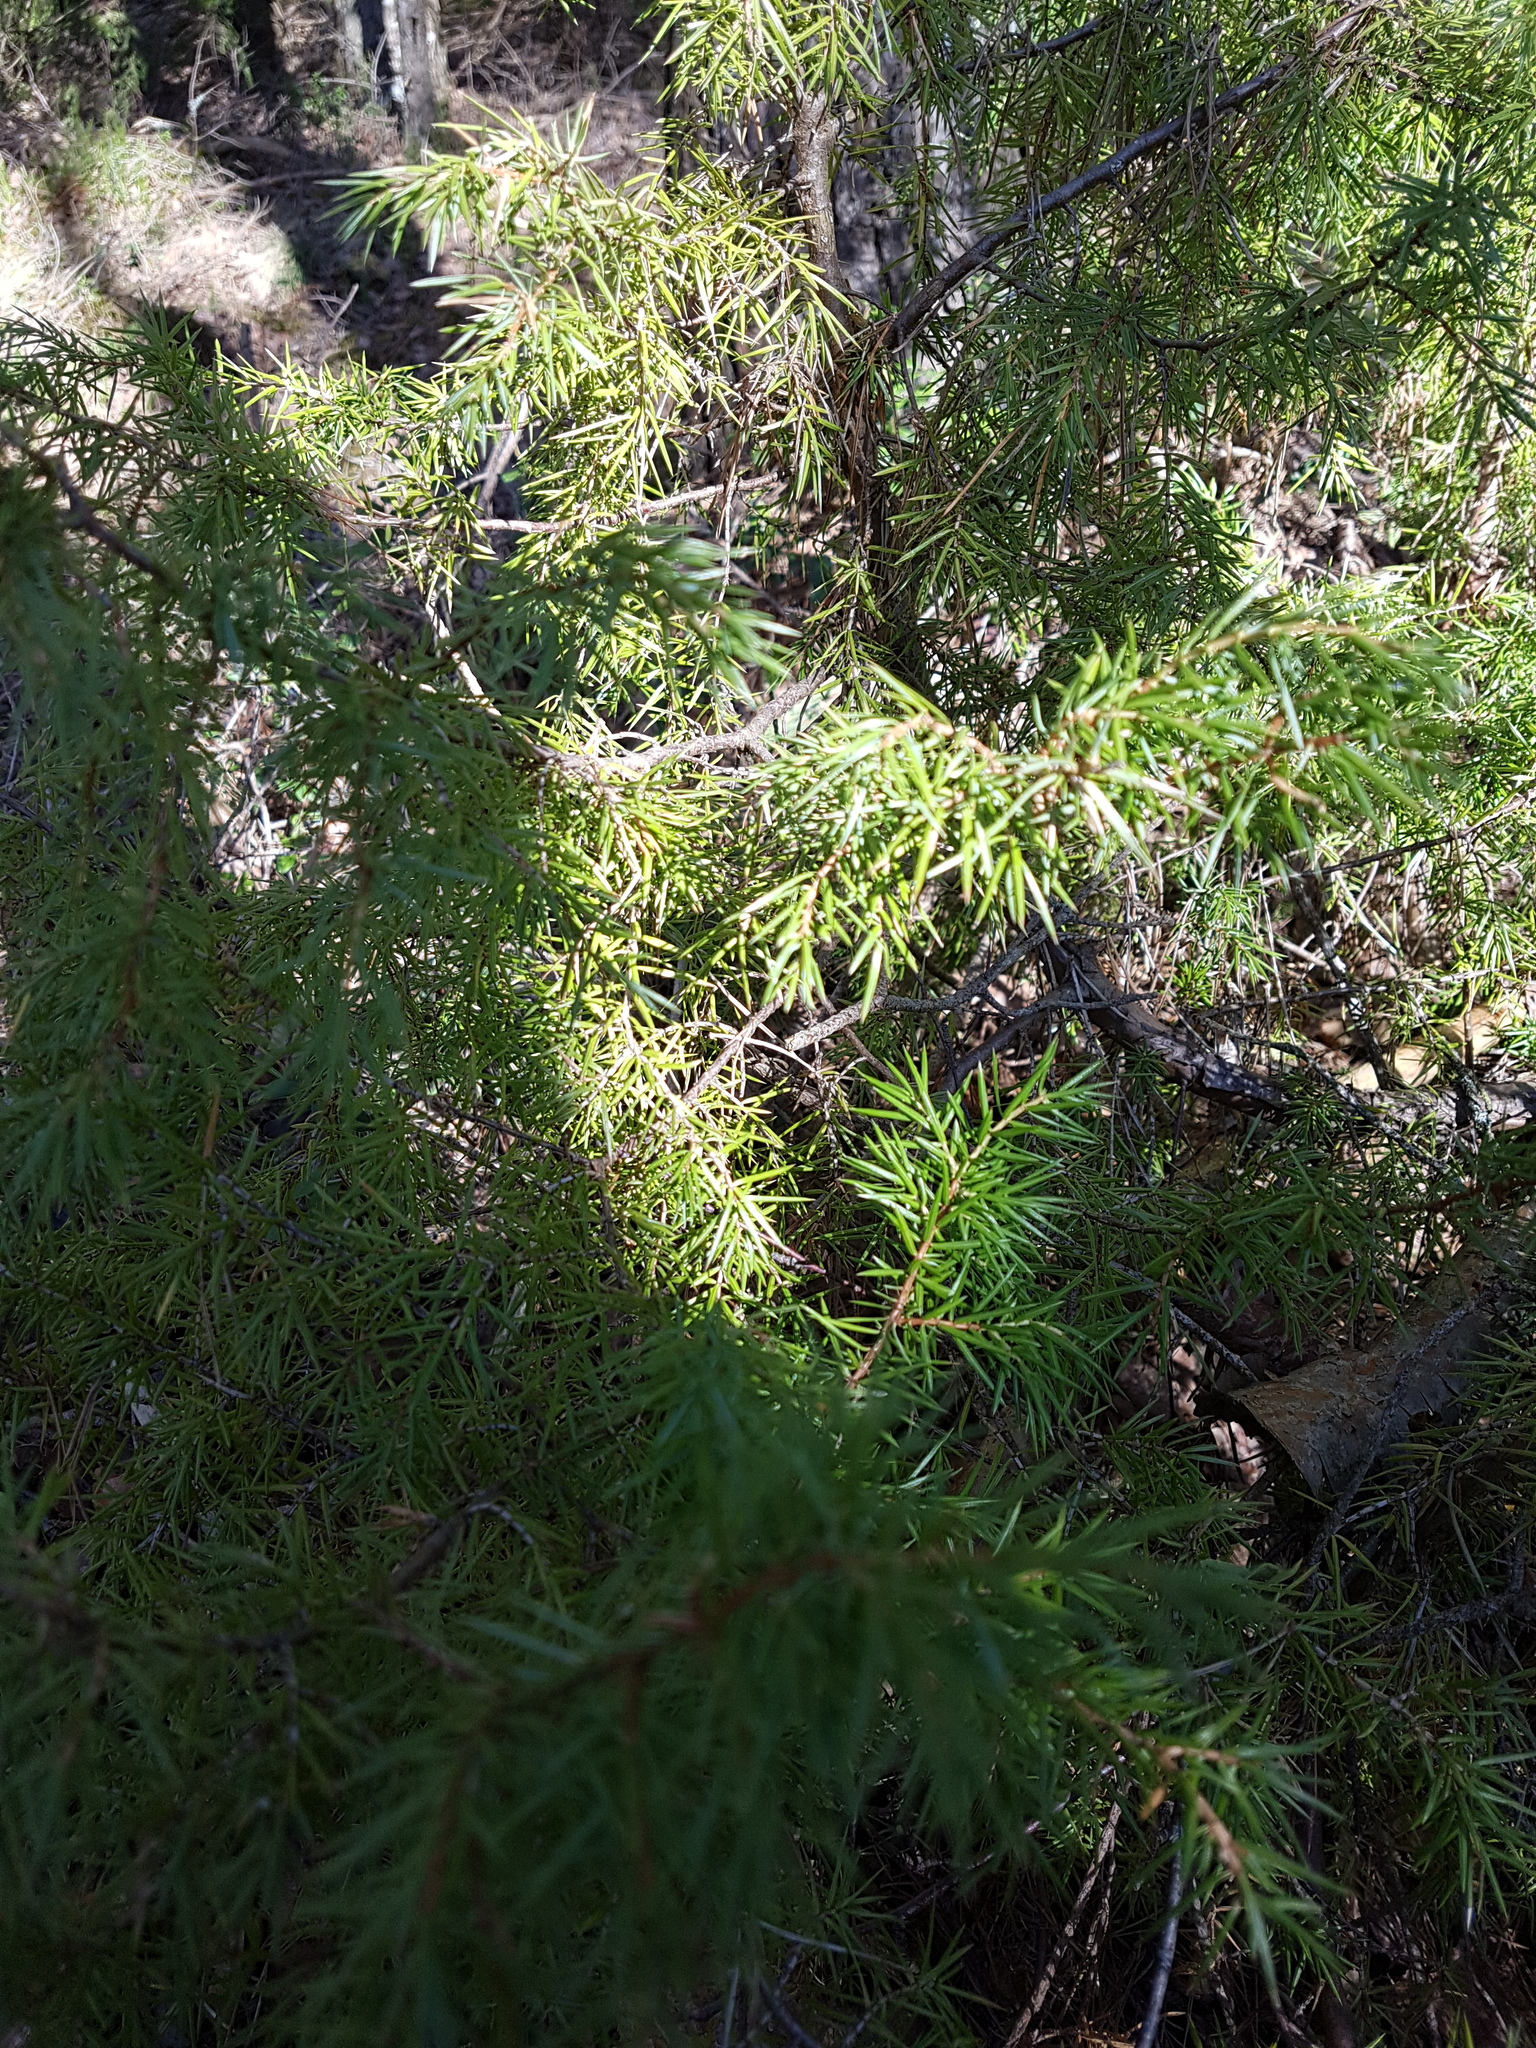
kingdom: Plantae
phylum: Tracheophyta
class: Pinopsida
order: Pinales
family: Cupressaceae
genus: Juniperus
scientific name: Juniperus communis
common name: Common juniper
